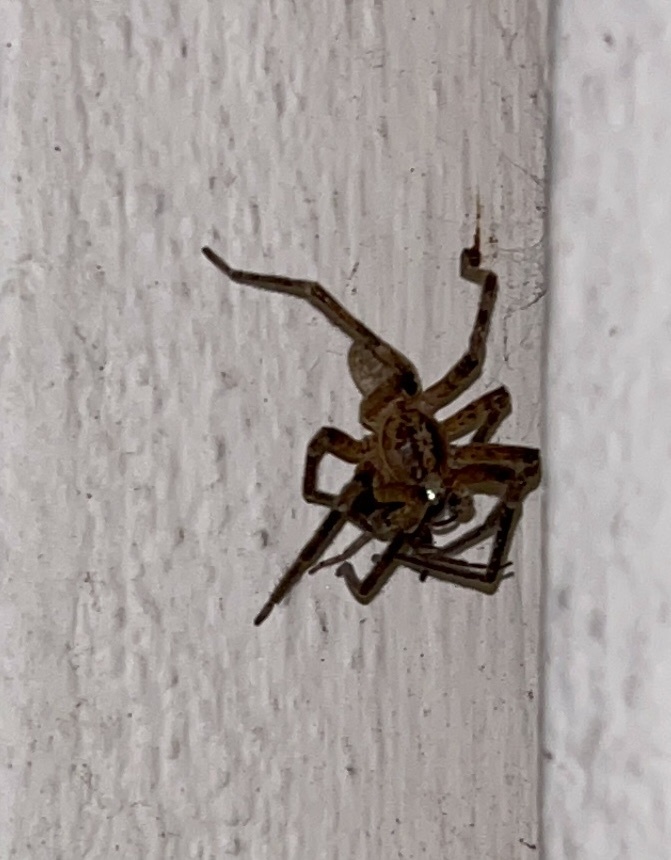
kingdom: Animalia
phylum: Arthropoda
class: Arachnida
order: Araneae
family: Zoropsidae
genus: Zoropsis
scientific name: Zoropsis spinimana
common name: Zoropsid spider
